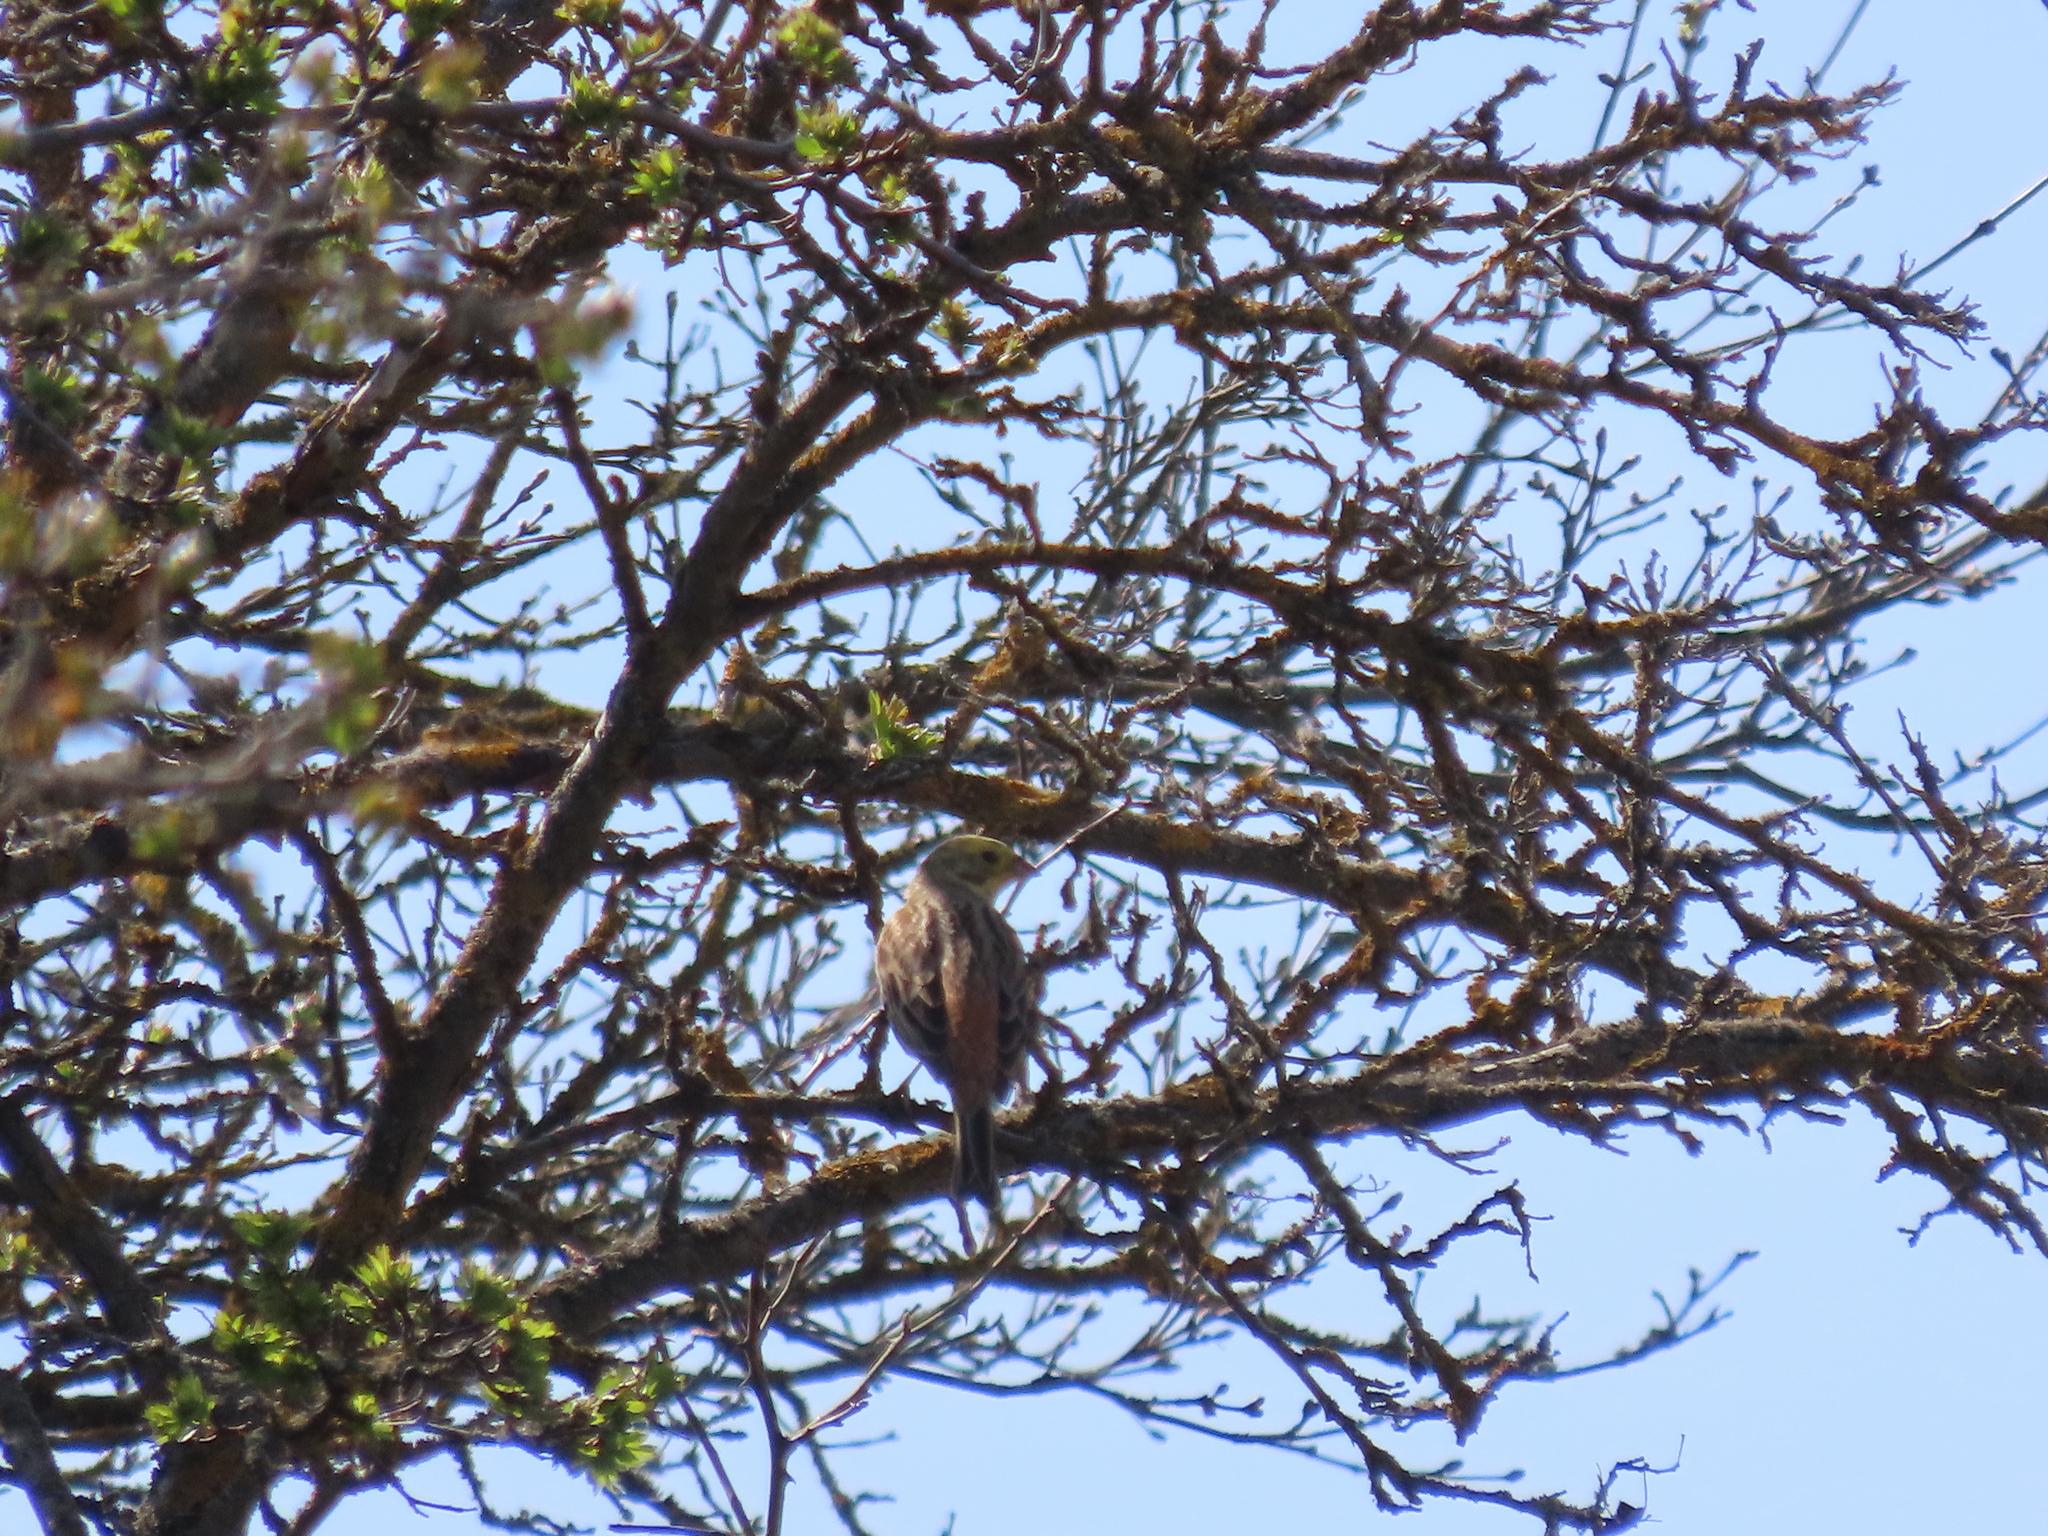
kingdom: Animalia
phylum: Chordata
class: Aves
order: Passeriformes
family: Emberizidae
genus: Emberiza
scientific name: Emberiza citrinella
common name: Yellowhammer
